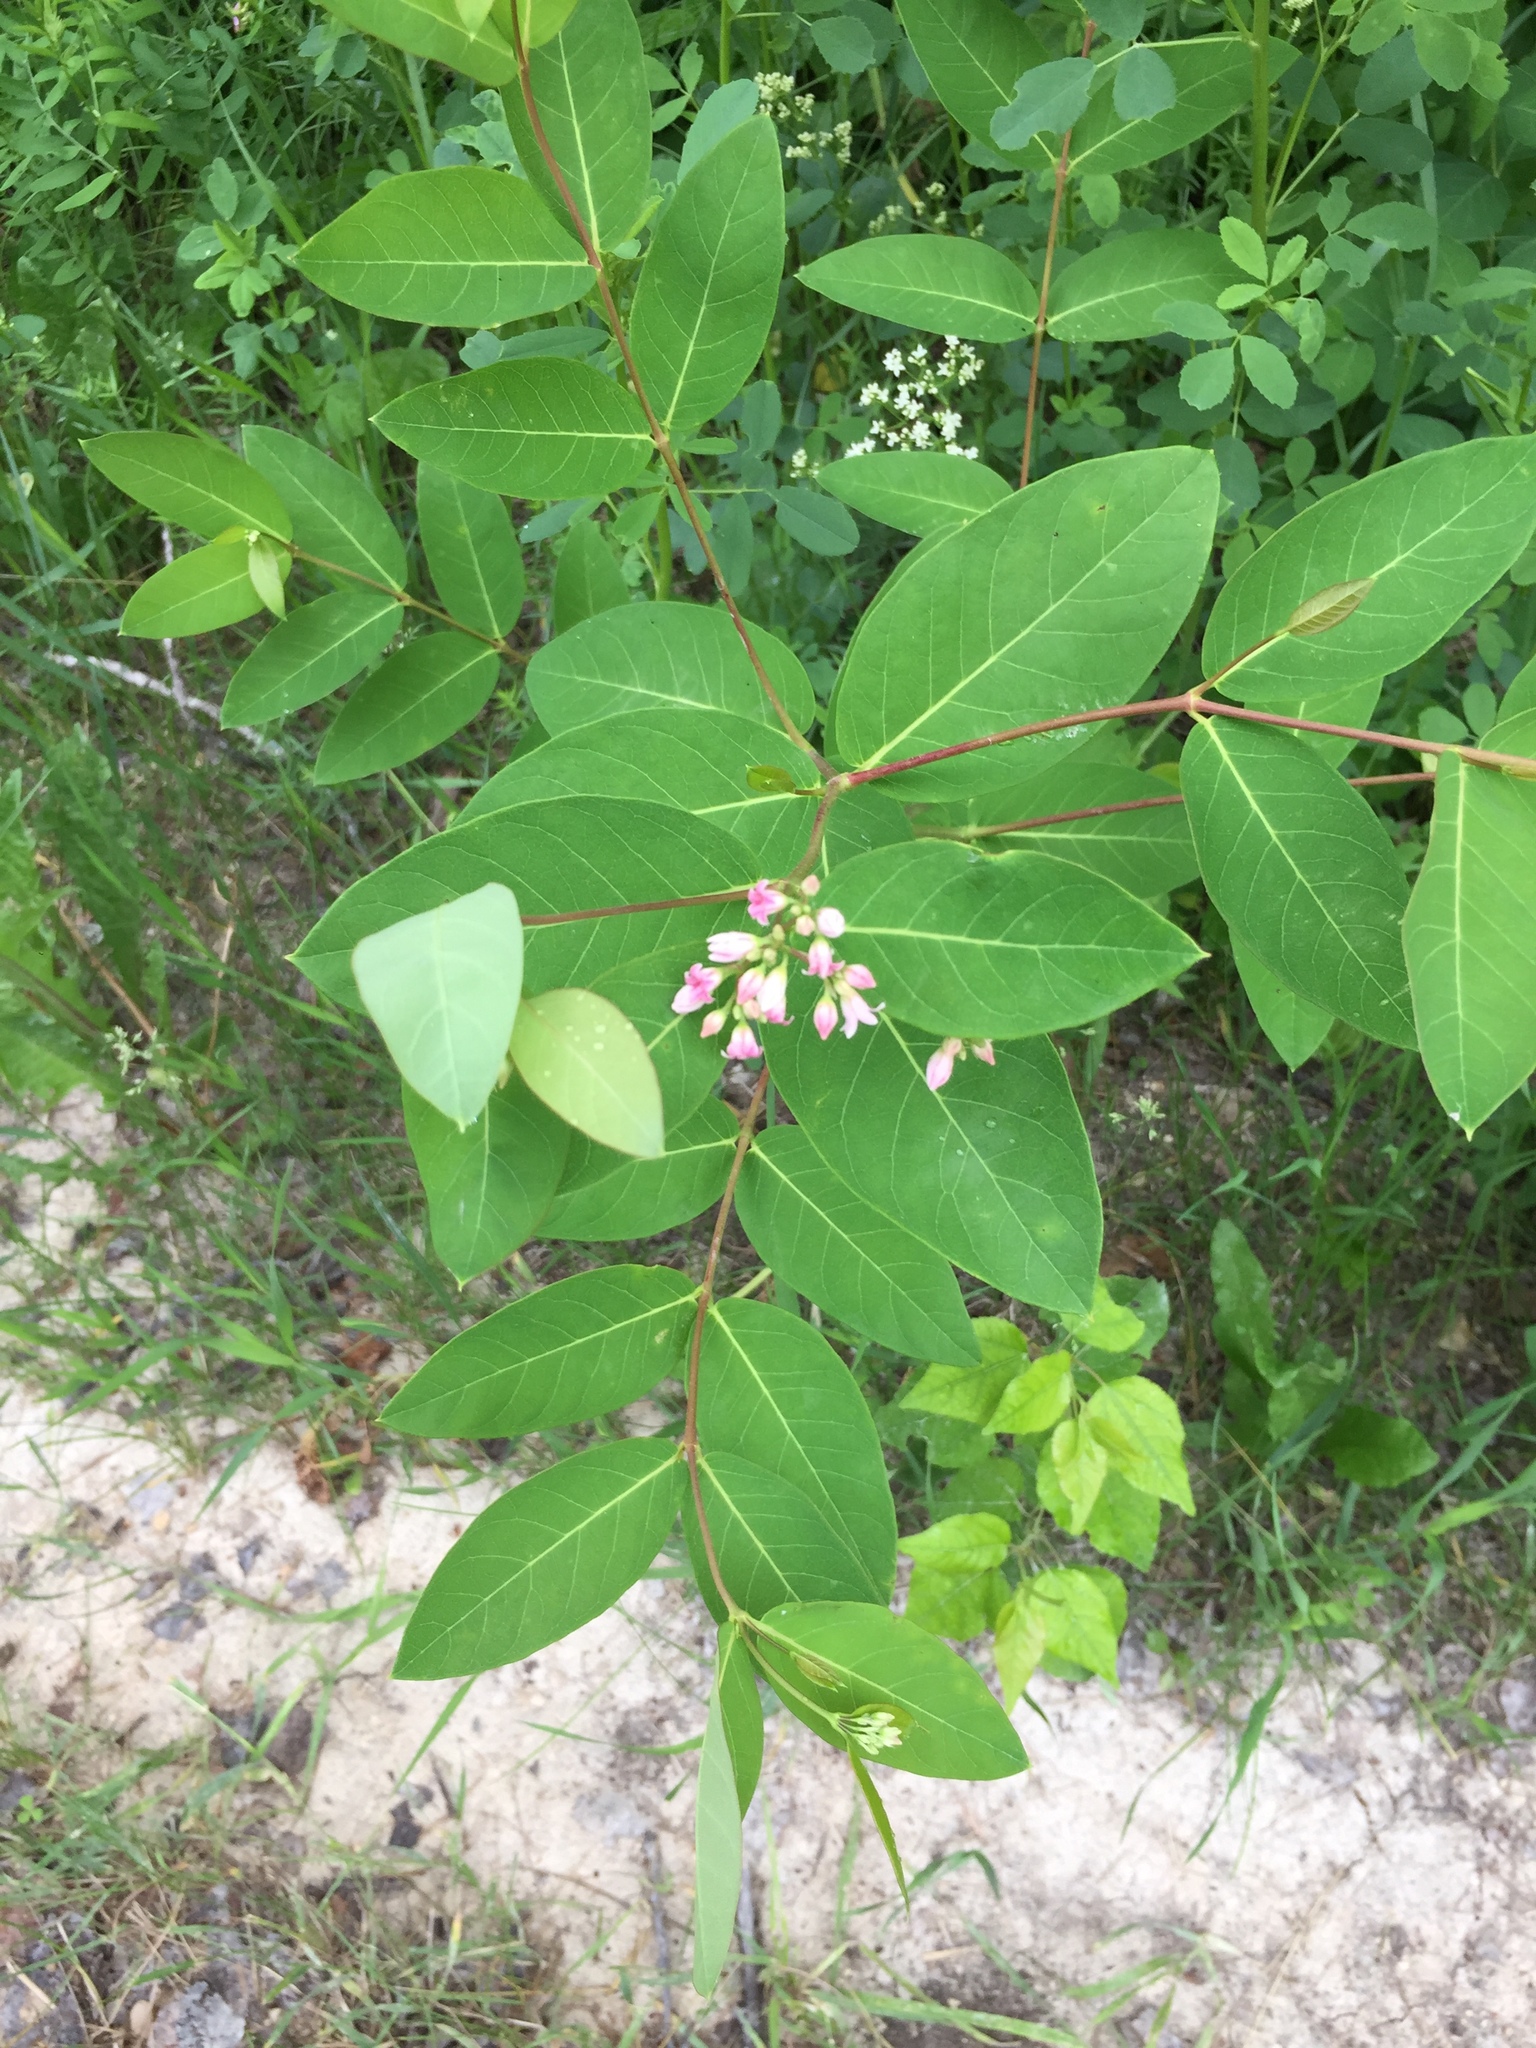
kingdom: Plantae
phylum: Tracheophyta
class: Magnoliopsida
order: Gentianales
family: Apocynaceae
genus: Apocynum
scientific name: Apocynum androsaemifolium
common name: Spreading dogbane
